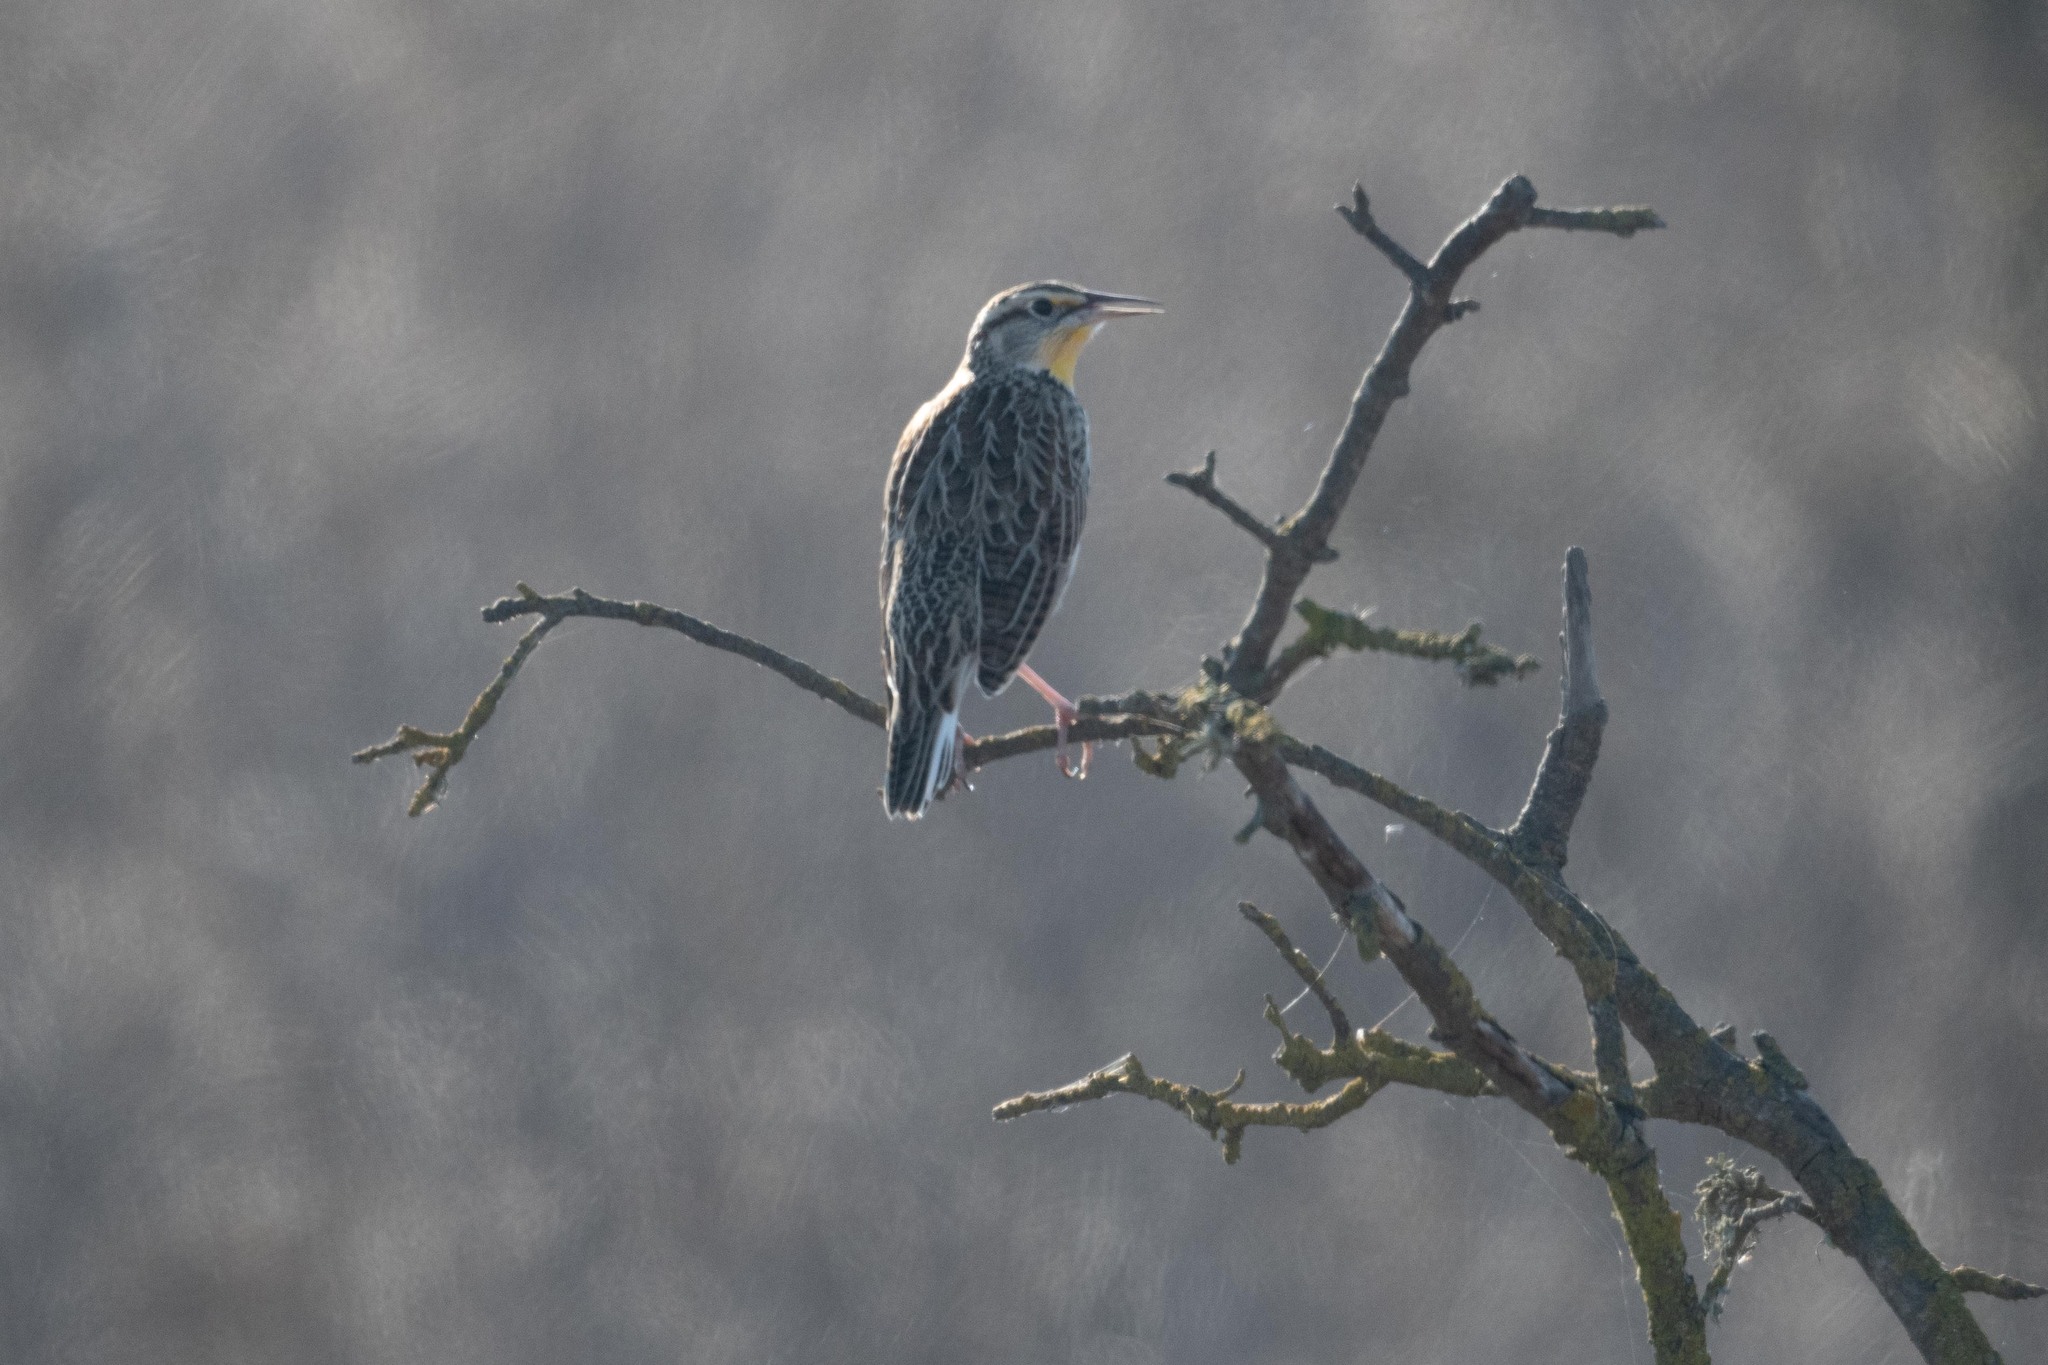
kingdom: Animalia
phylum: Chordata
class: Aves
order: Passeriformes
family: Icteridae
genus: Sturnella
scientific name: Sturnella neglecta
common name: Western meadowlark
